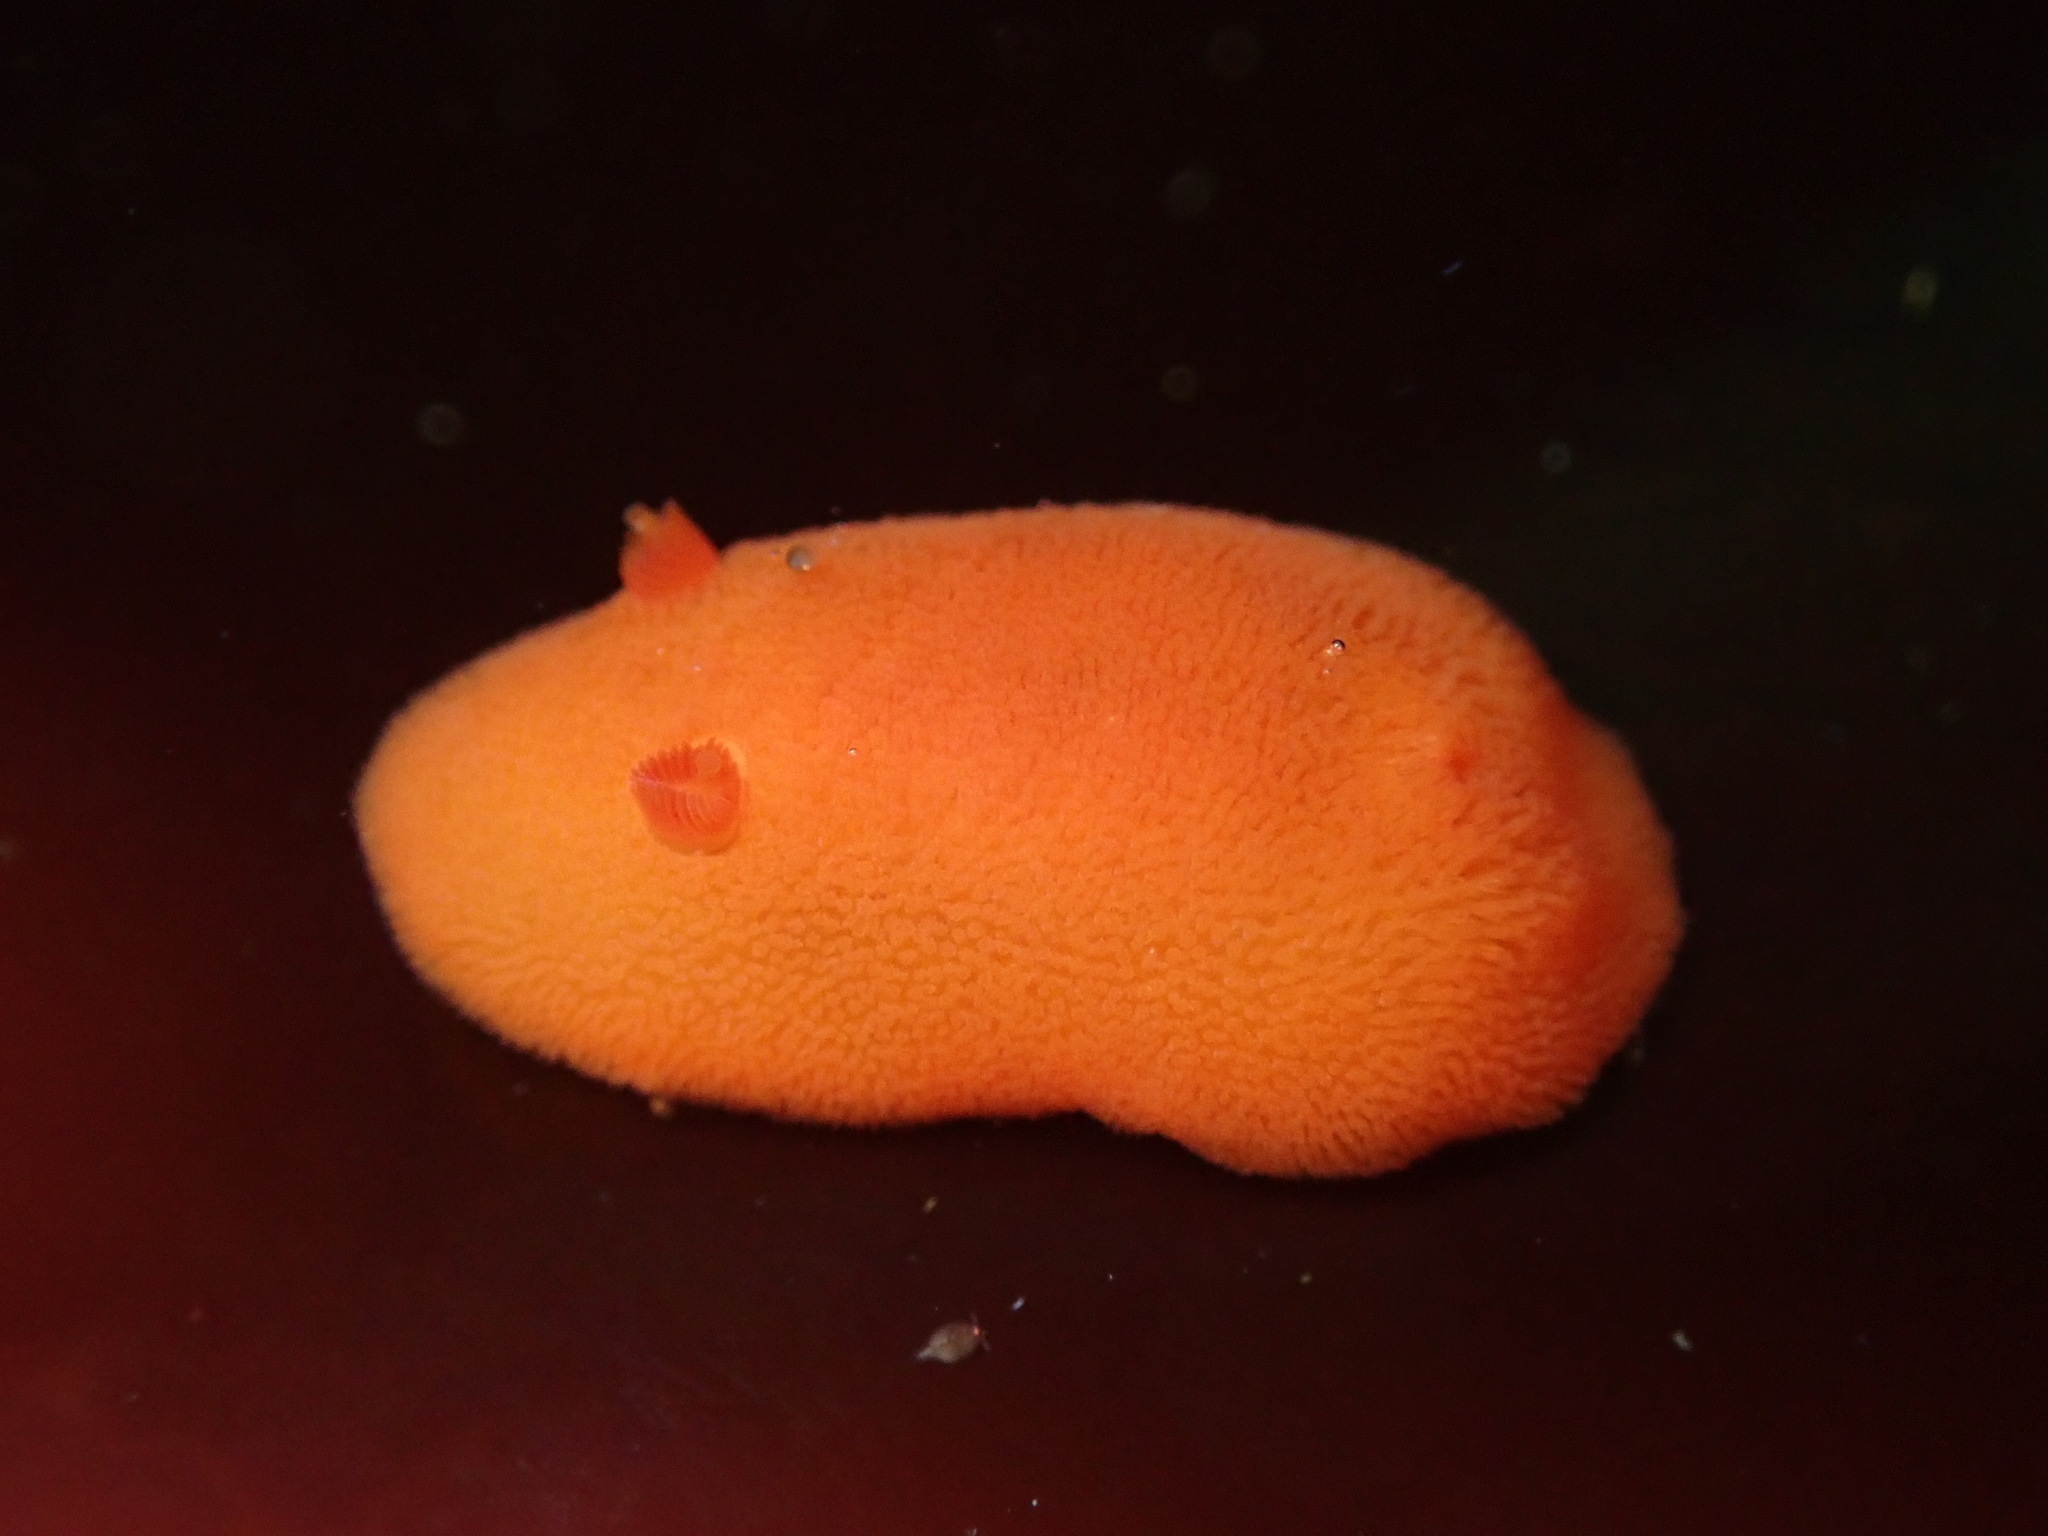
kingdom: Animalia
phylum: Mollusca
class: Gastropoda
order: Nudibranchia
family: Discodorididae
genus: Rostanga
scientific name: Rostanga pulchra
